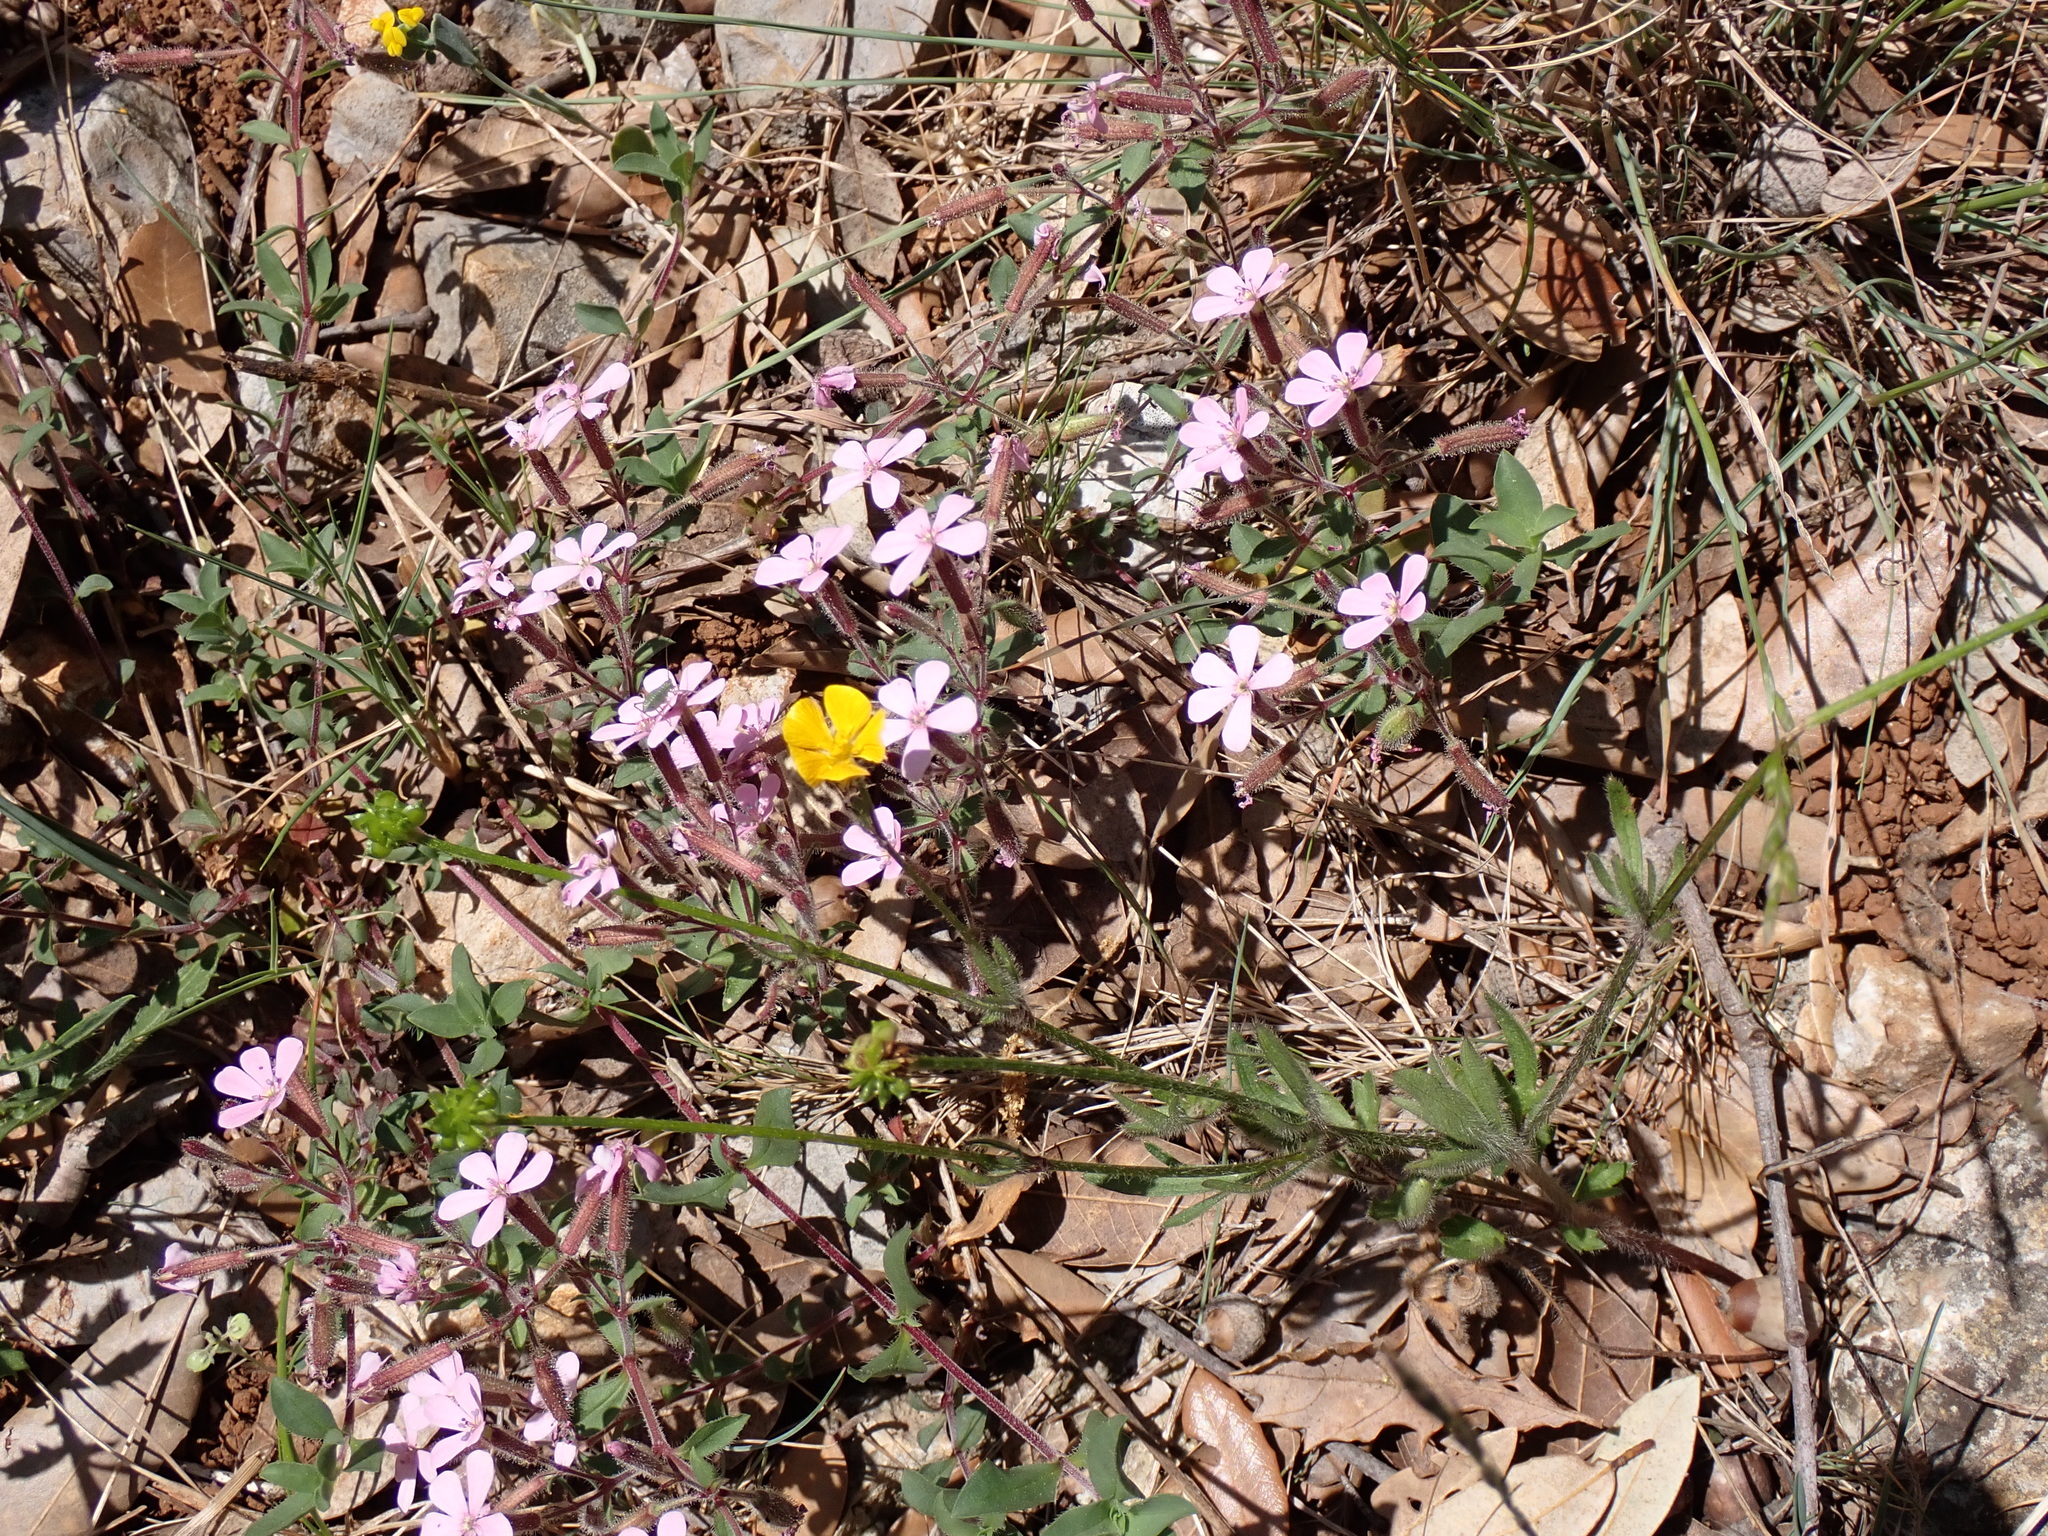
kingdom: Plantae
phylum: Tracheophyta
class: Magnoliopsida
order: Caryophyllales
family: Caryophyllaceae
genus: Saponaria
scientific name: Saponaria ocymoides
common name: Rock soapwort
